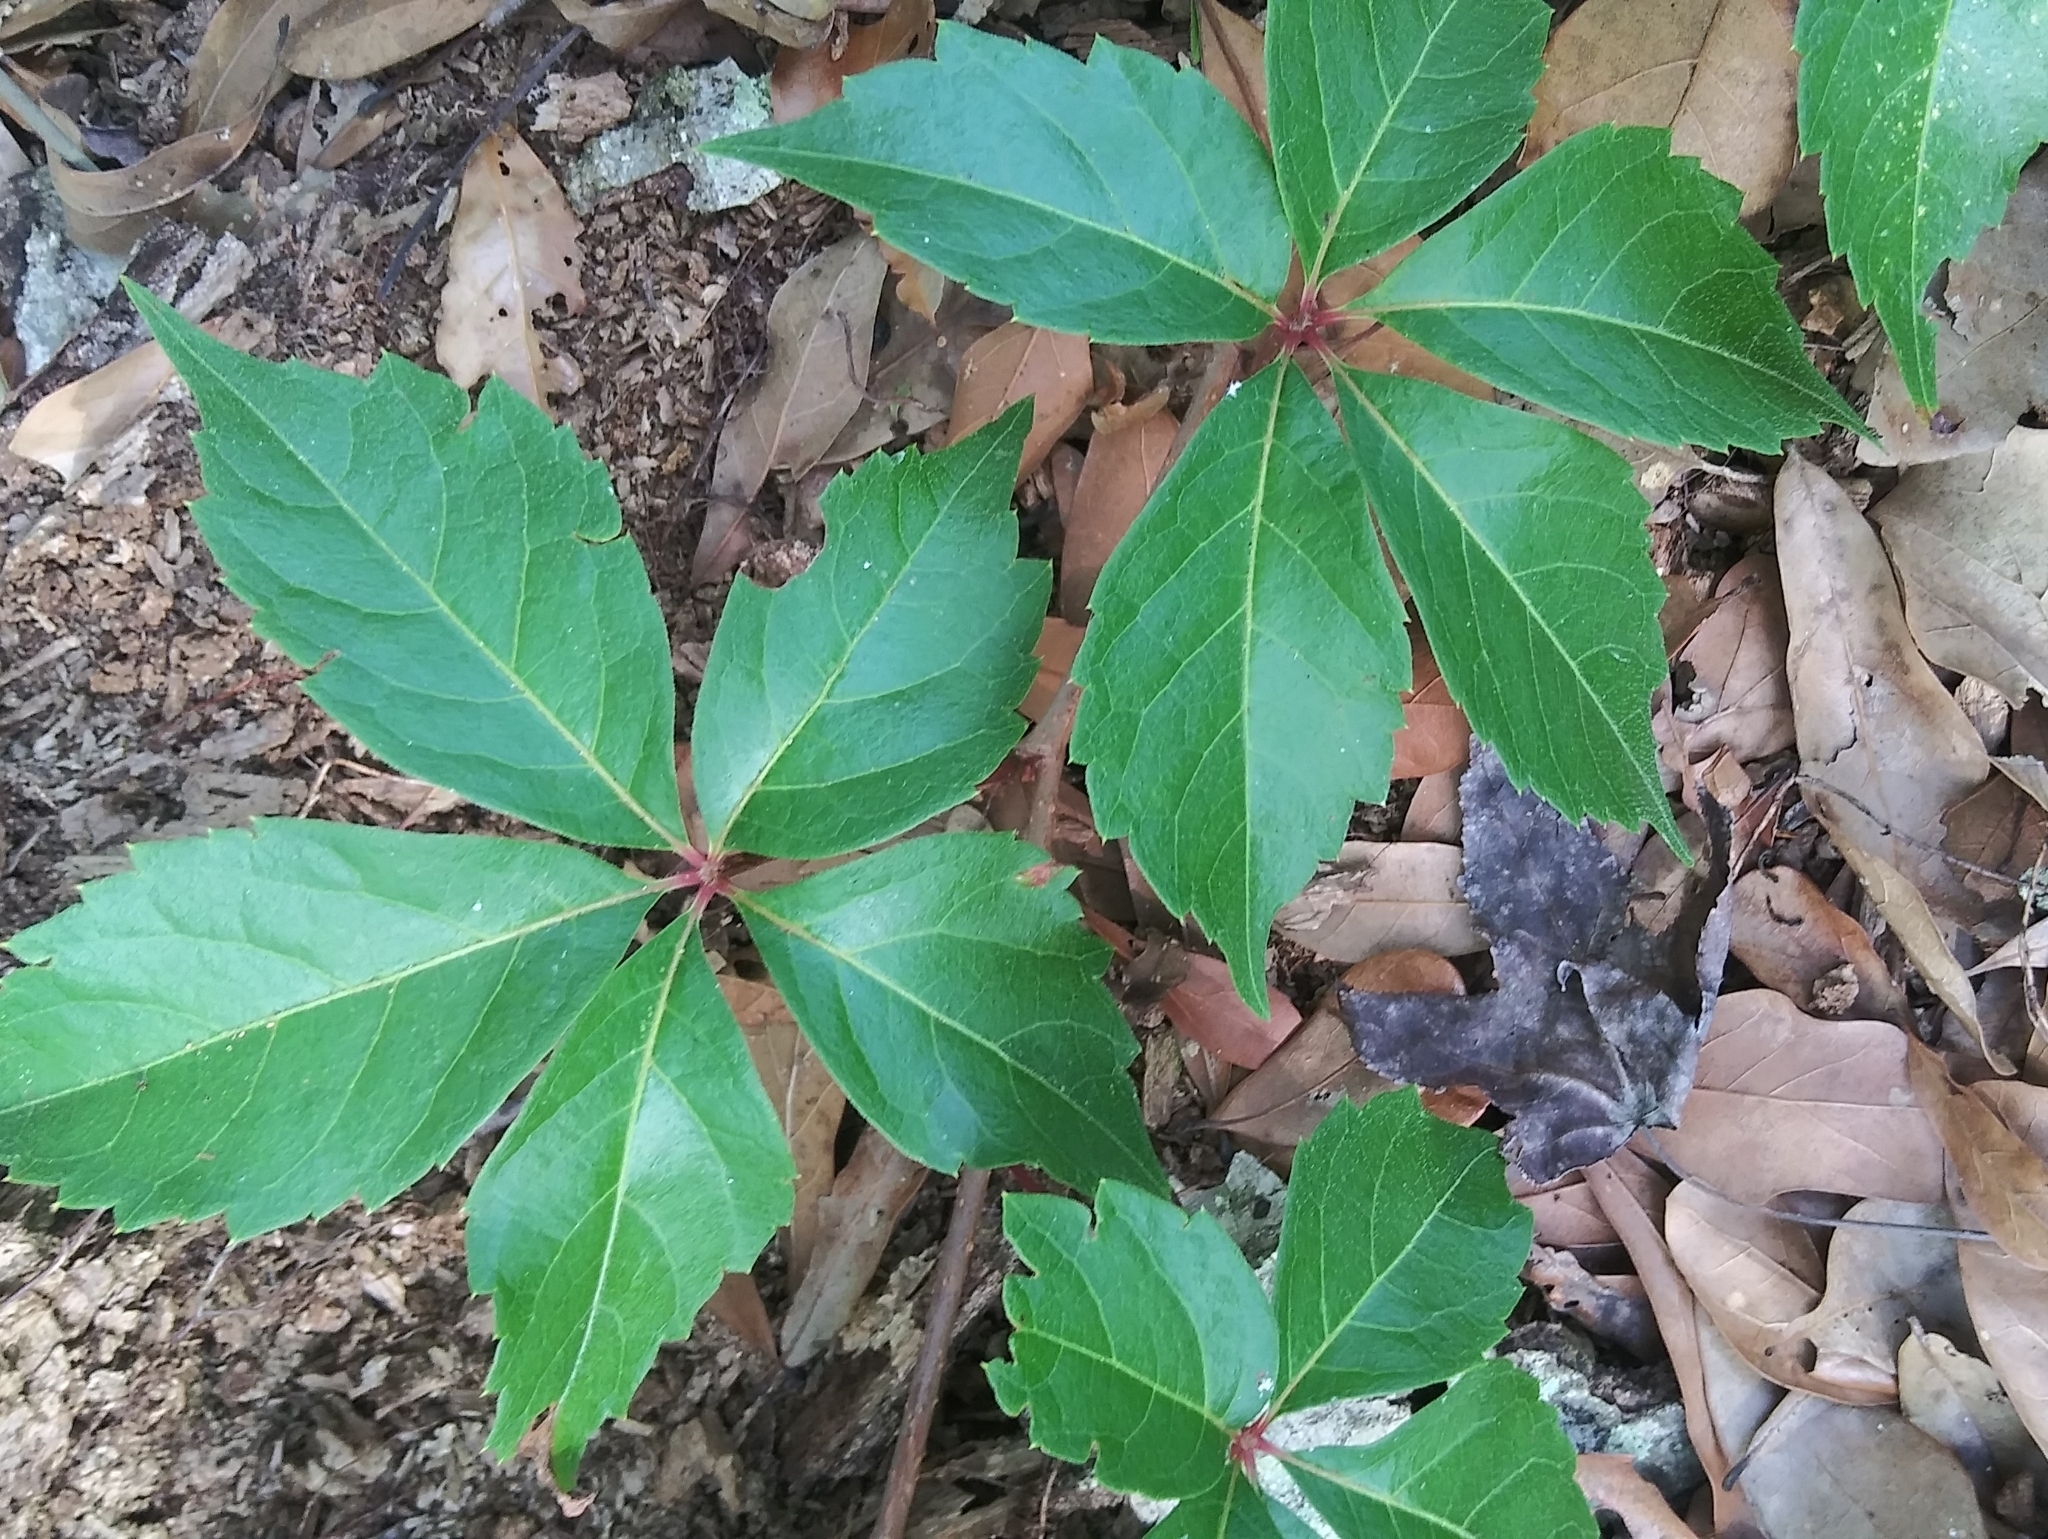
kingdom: Plantae
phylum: Tracheophyta
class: Magnoliopsida
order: Vitales
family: Vitaceae
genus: Parthenocissus
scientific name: Parthenocissus quinquefolia
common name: Virginia-creeper
